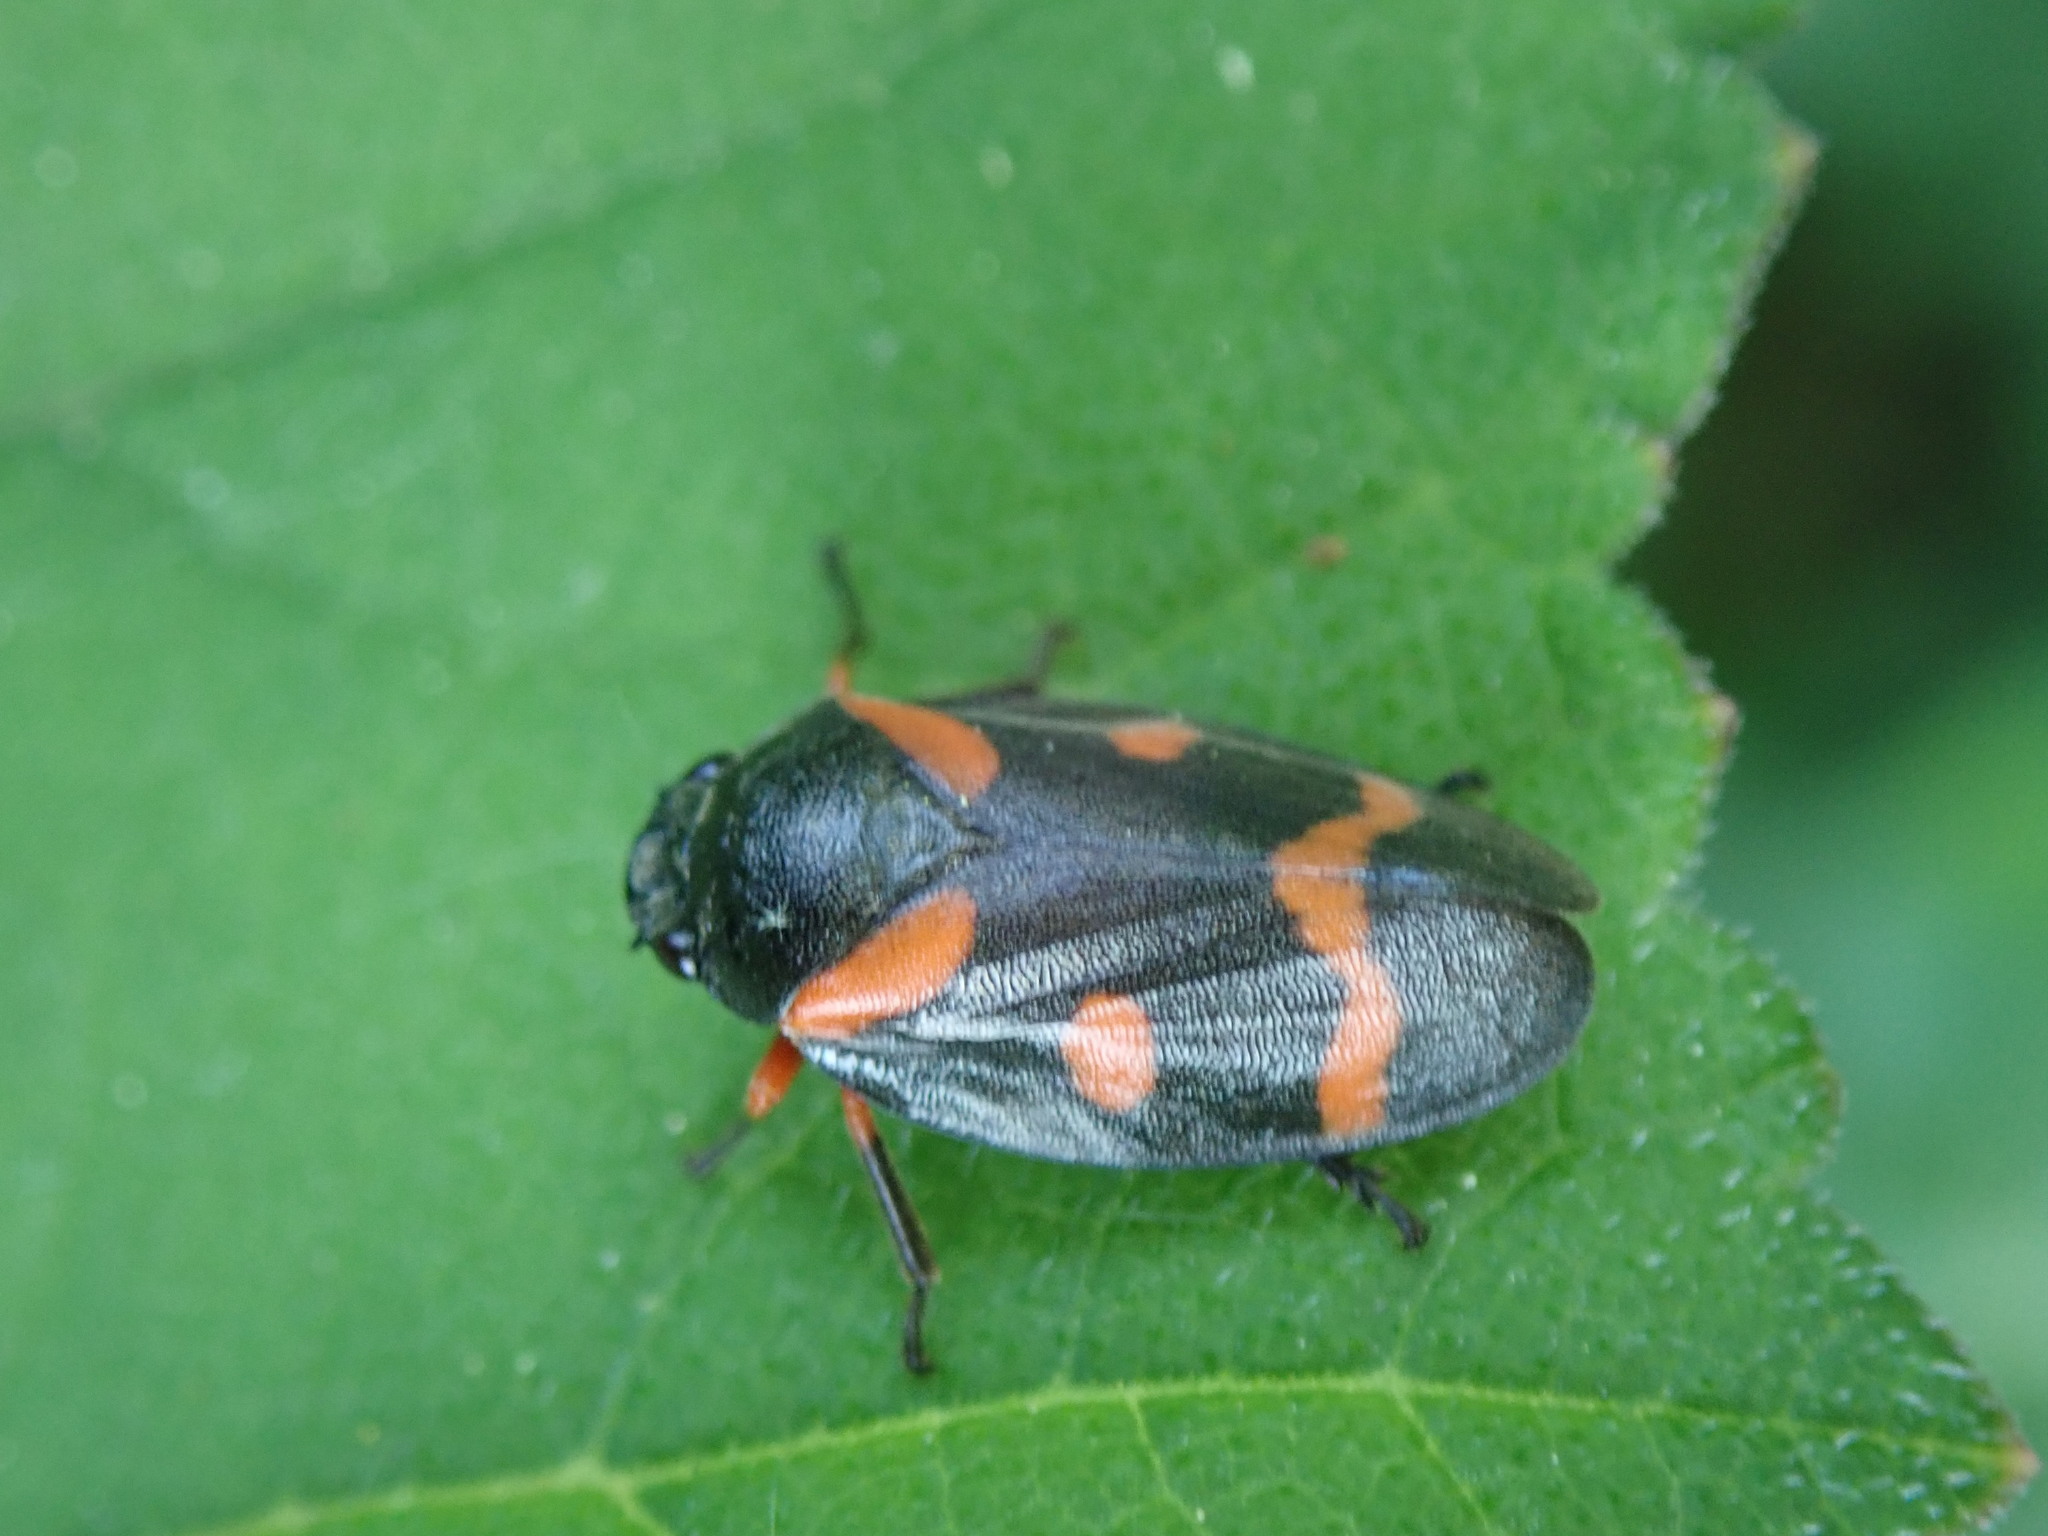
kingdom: Animalia
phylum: Arthropoda
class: Insecta
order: Hemiptera
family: Cercopidae
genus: Cercopis
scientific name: Cercopis intermedia
